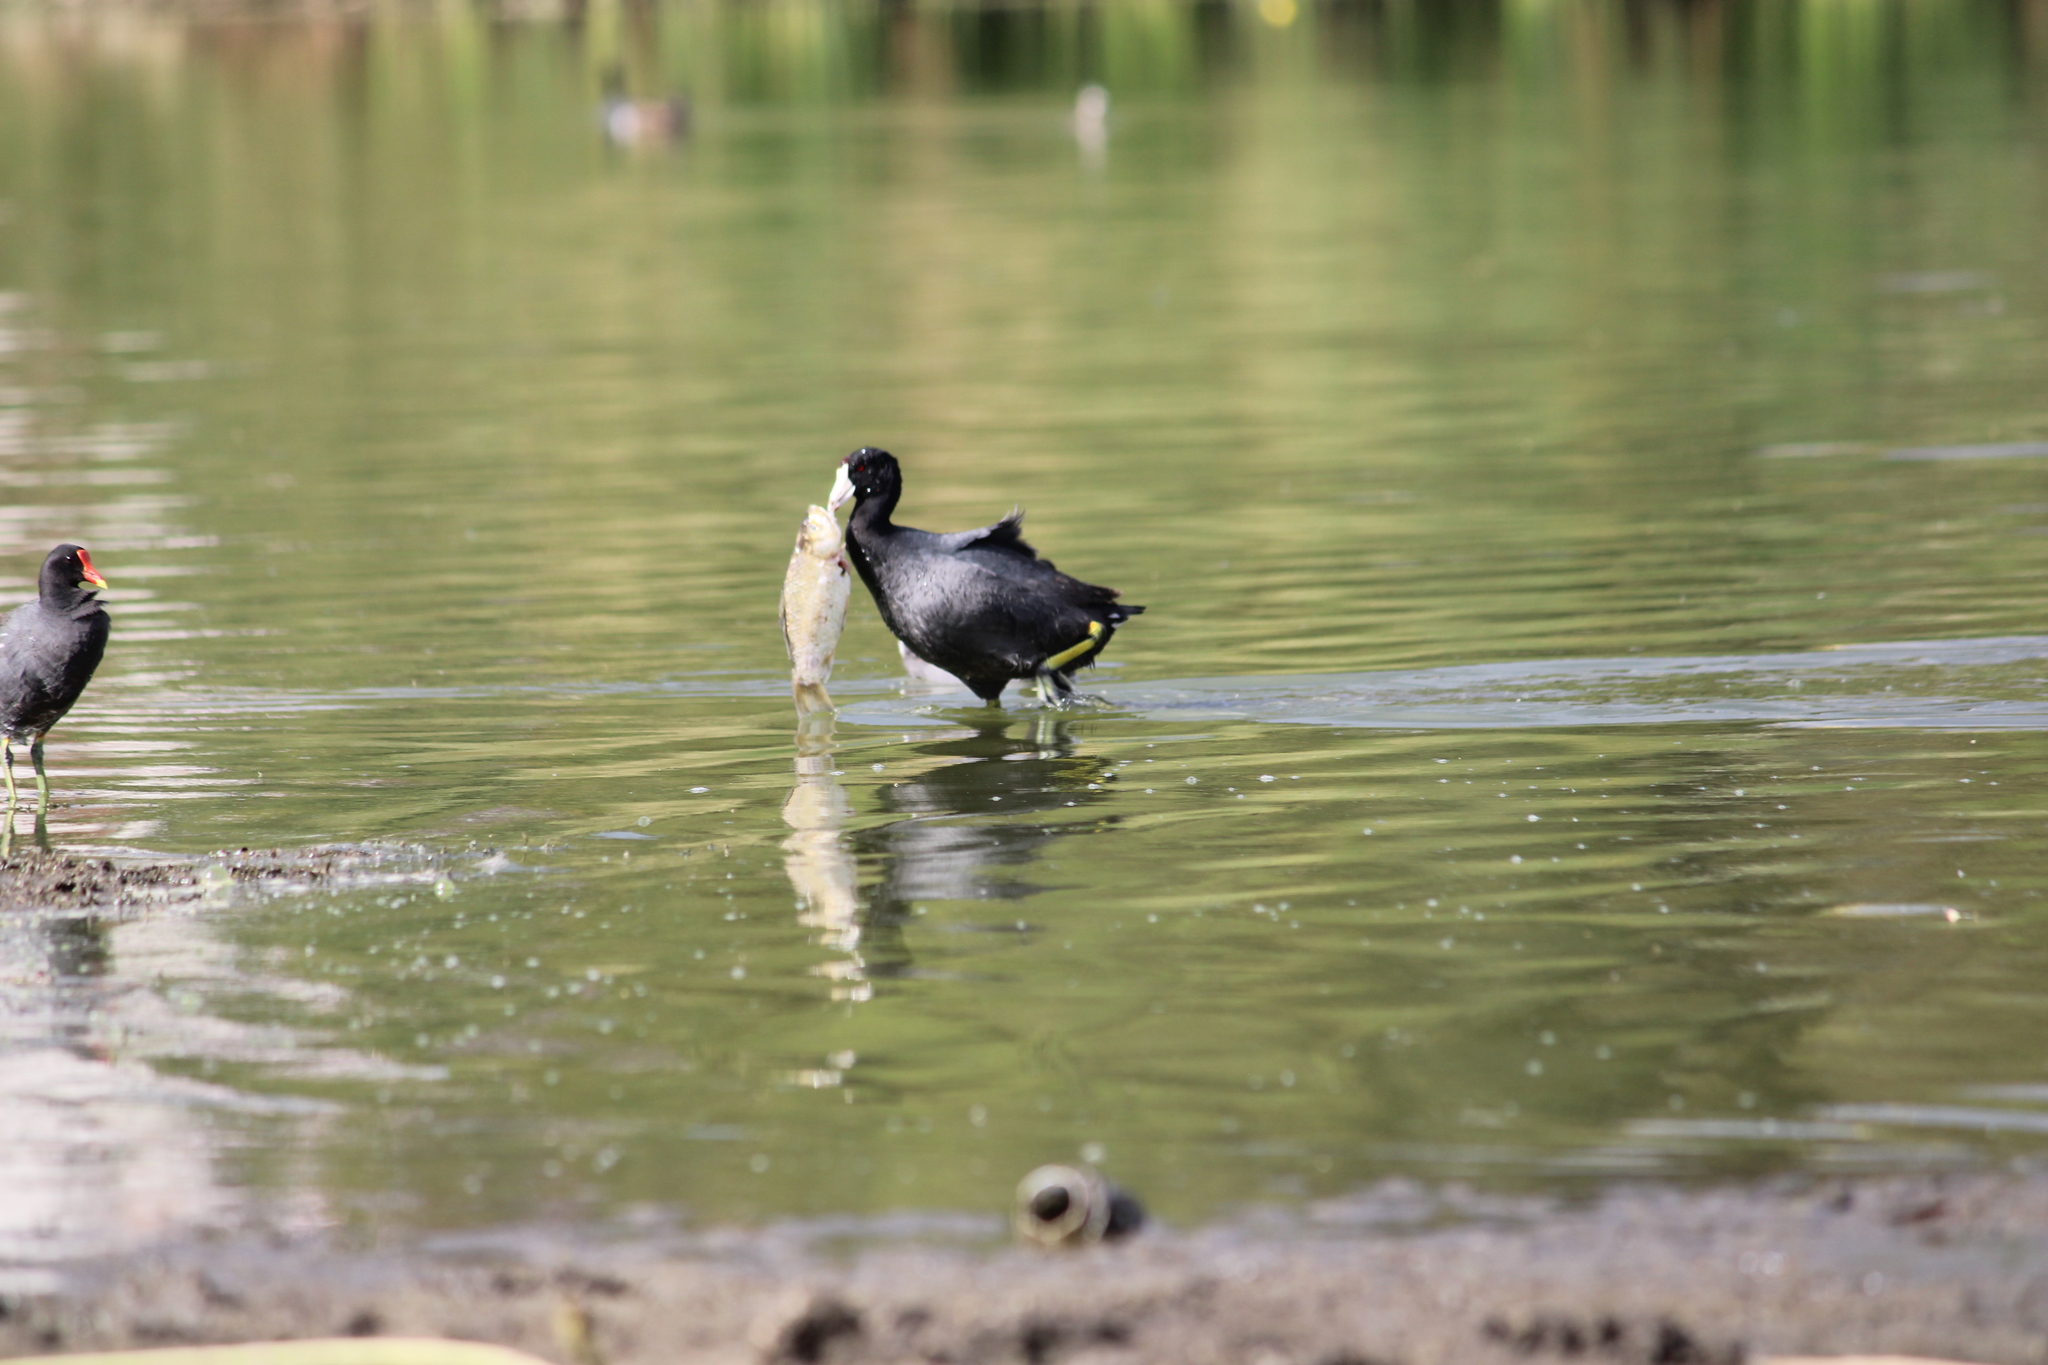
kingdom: Animalia
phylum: Chordata
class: Aves
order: Gruiformes
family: Rallidae
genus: Fulica
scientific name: Fulica americana
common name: American coot
